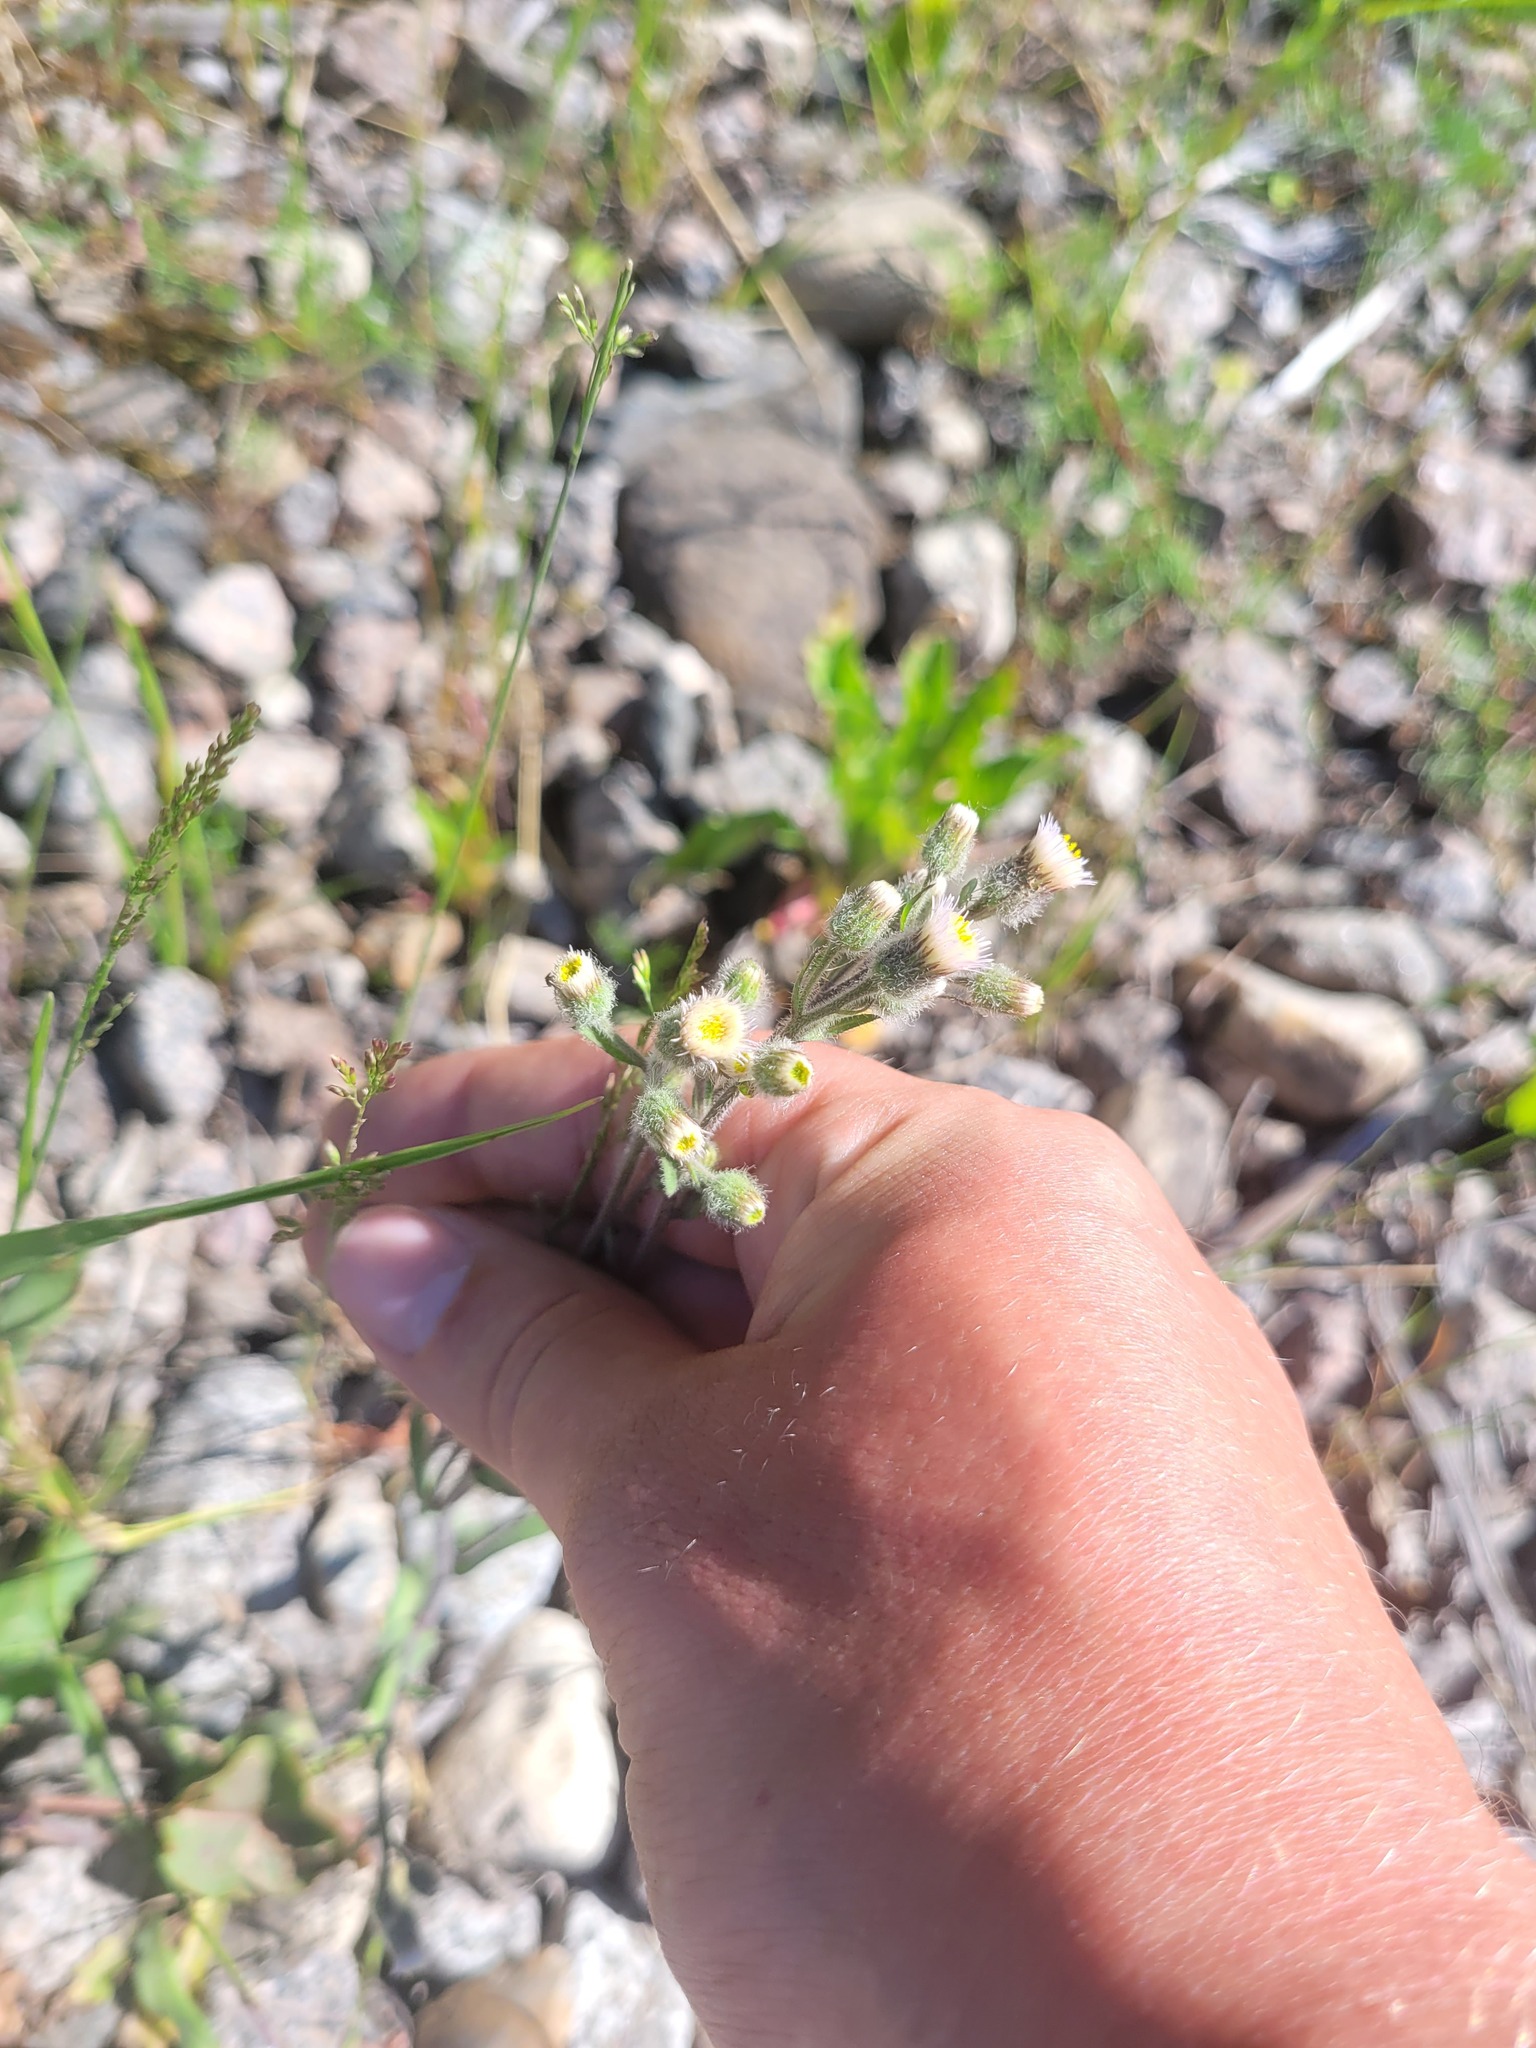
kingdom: Plantae
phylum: Tracheophyta
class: Magnoliopsida
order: Asterales
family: Asteraceae
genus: Erigeron
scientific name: Erigeron acris
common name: Blue fleabane
